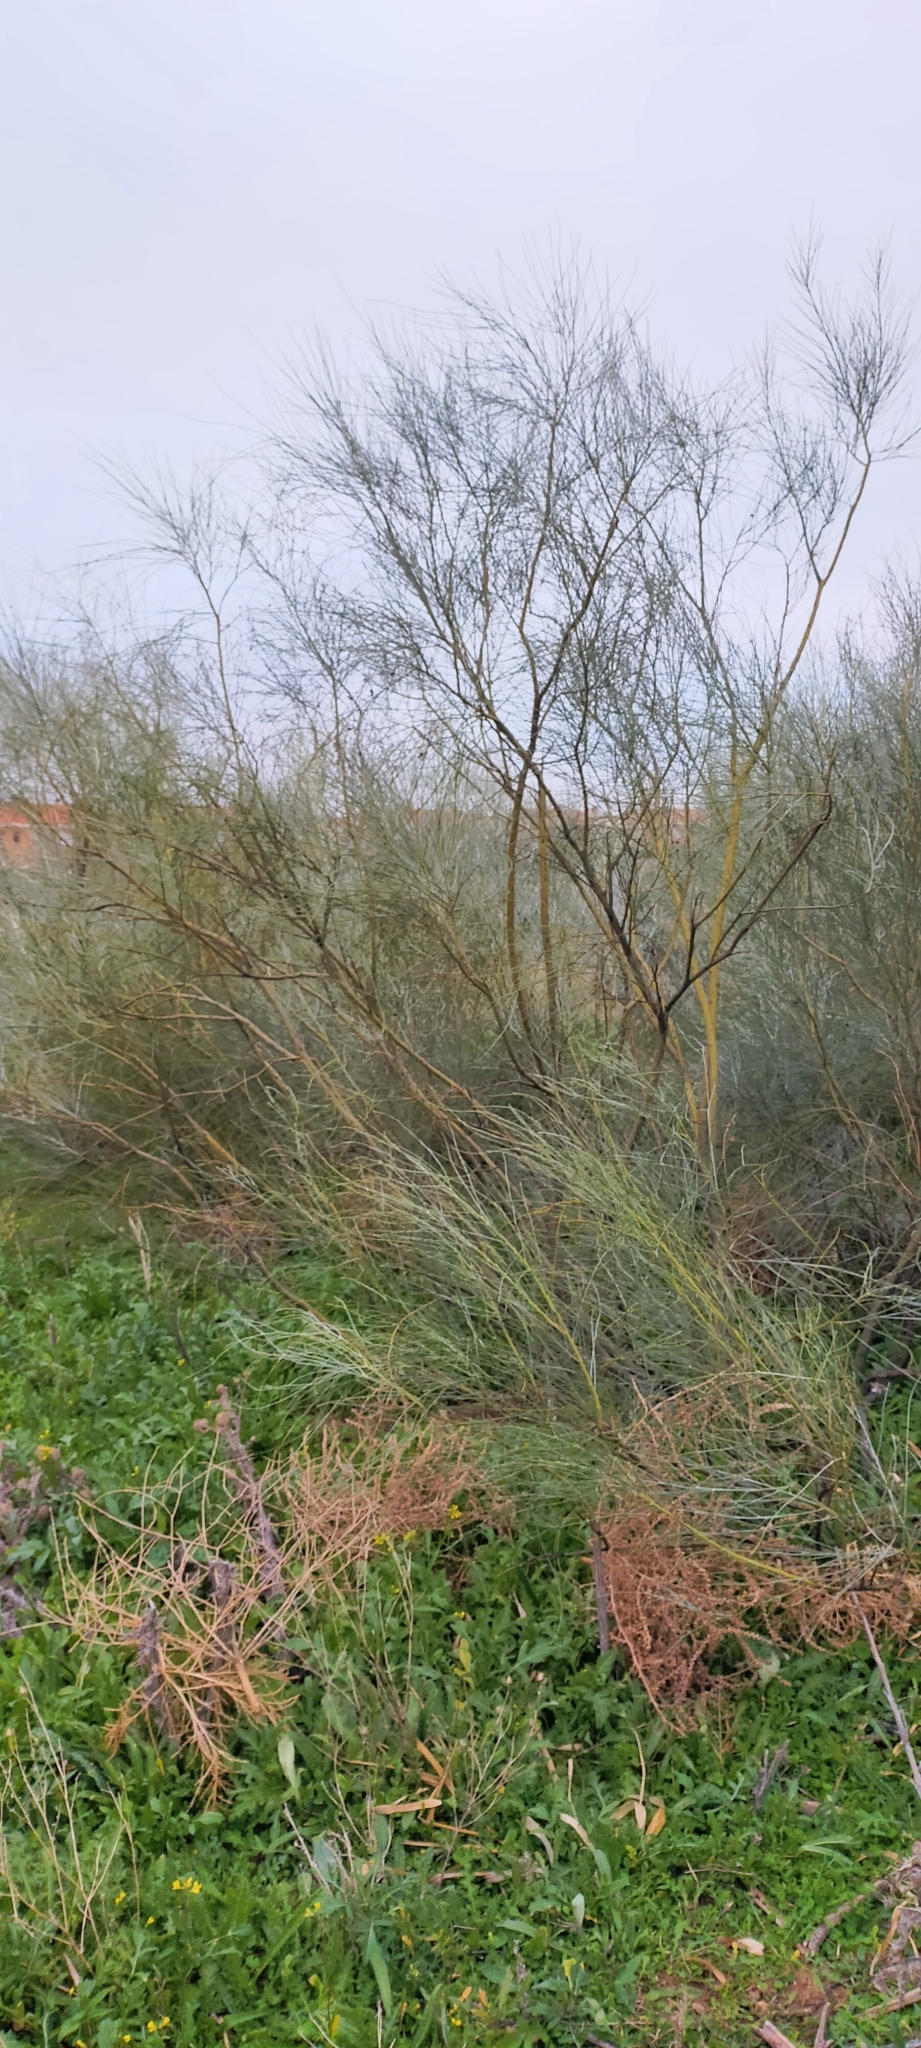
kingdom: Plantae
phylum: Tracheophyta
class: Magnoliopsida
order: Fabales
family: Fabaceae
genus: Retama
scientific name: Retama sphaerocarpa
